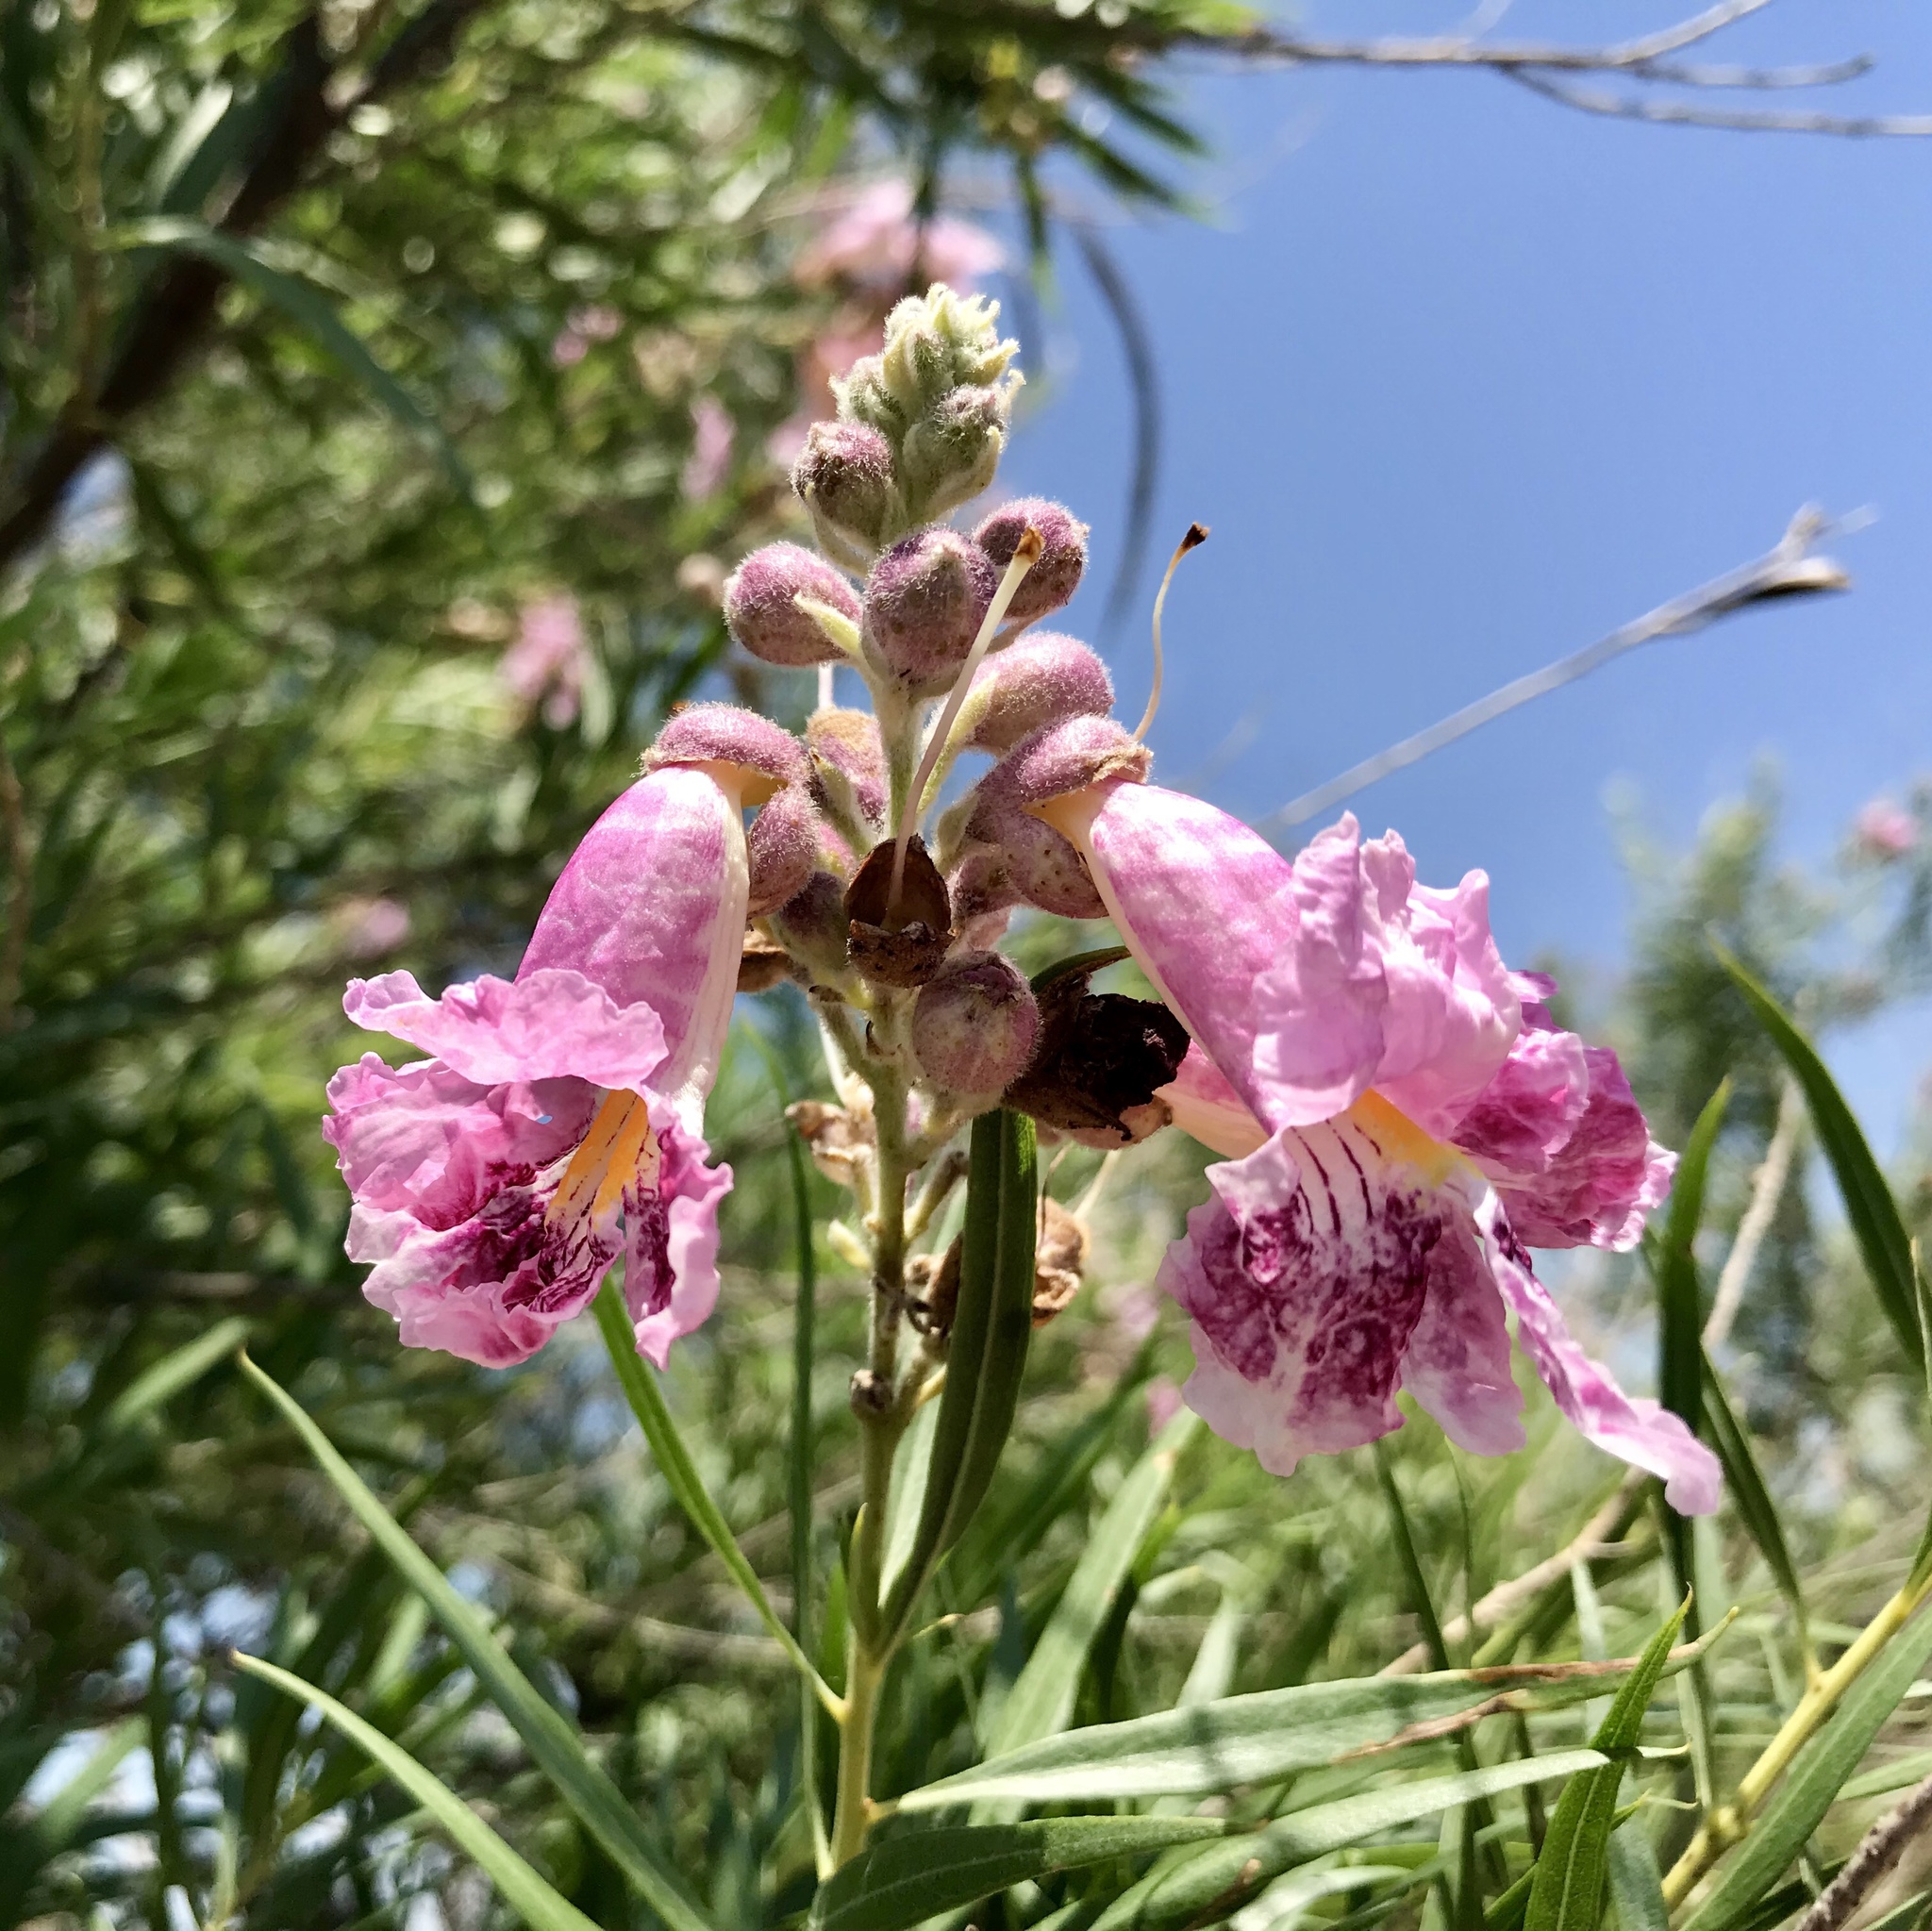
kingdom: Plantae
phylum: Tracheophyta
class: Magnoliopsida
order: Lamiales
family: Bignoniaceae
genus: Chilopsis
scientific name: Chilopsis linearis
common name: Desert-willow
